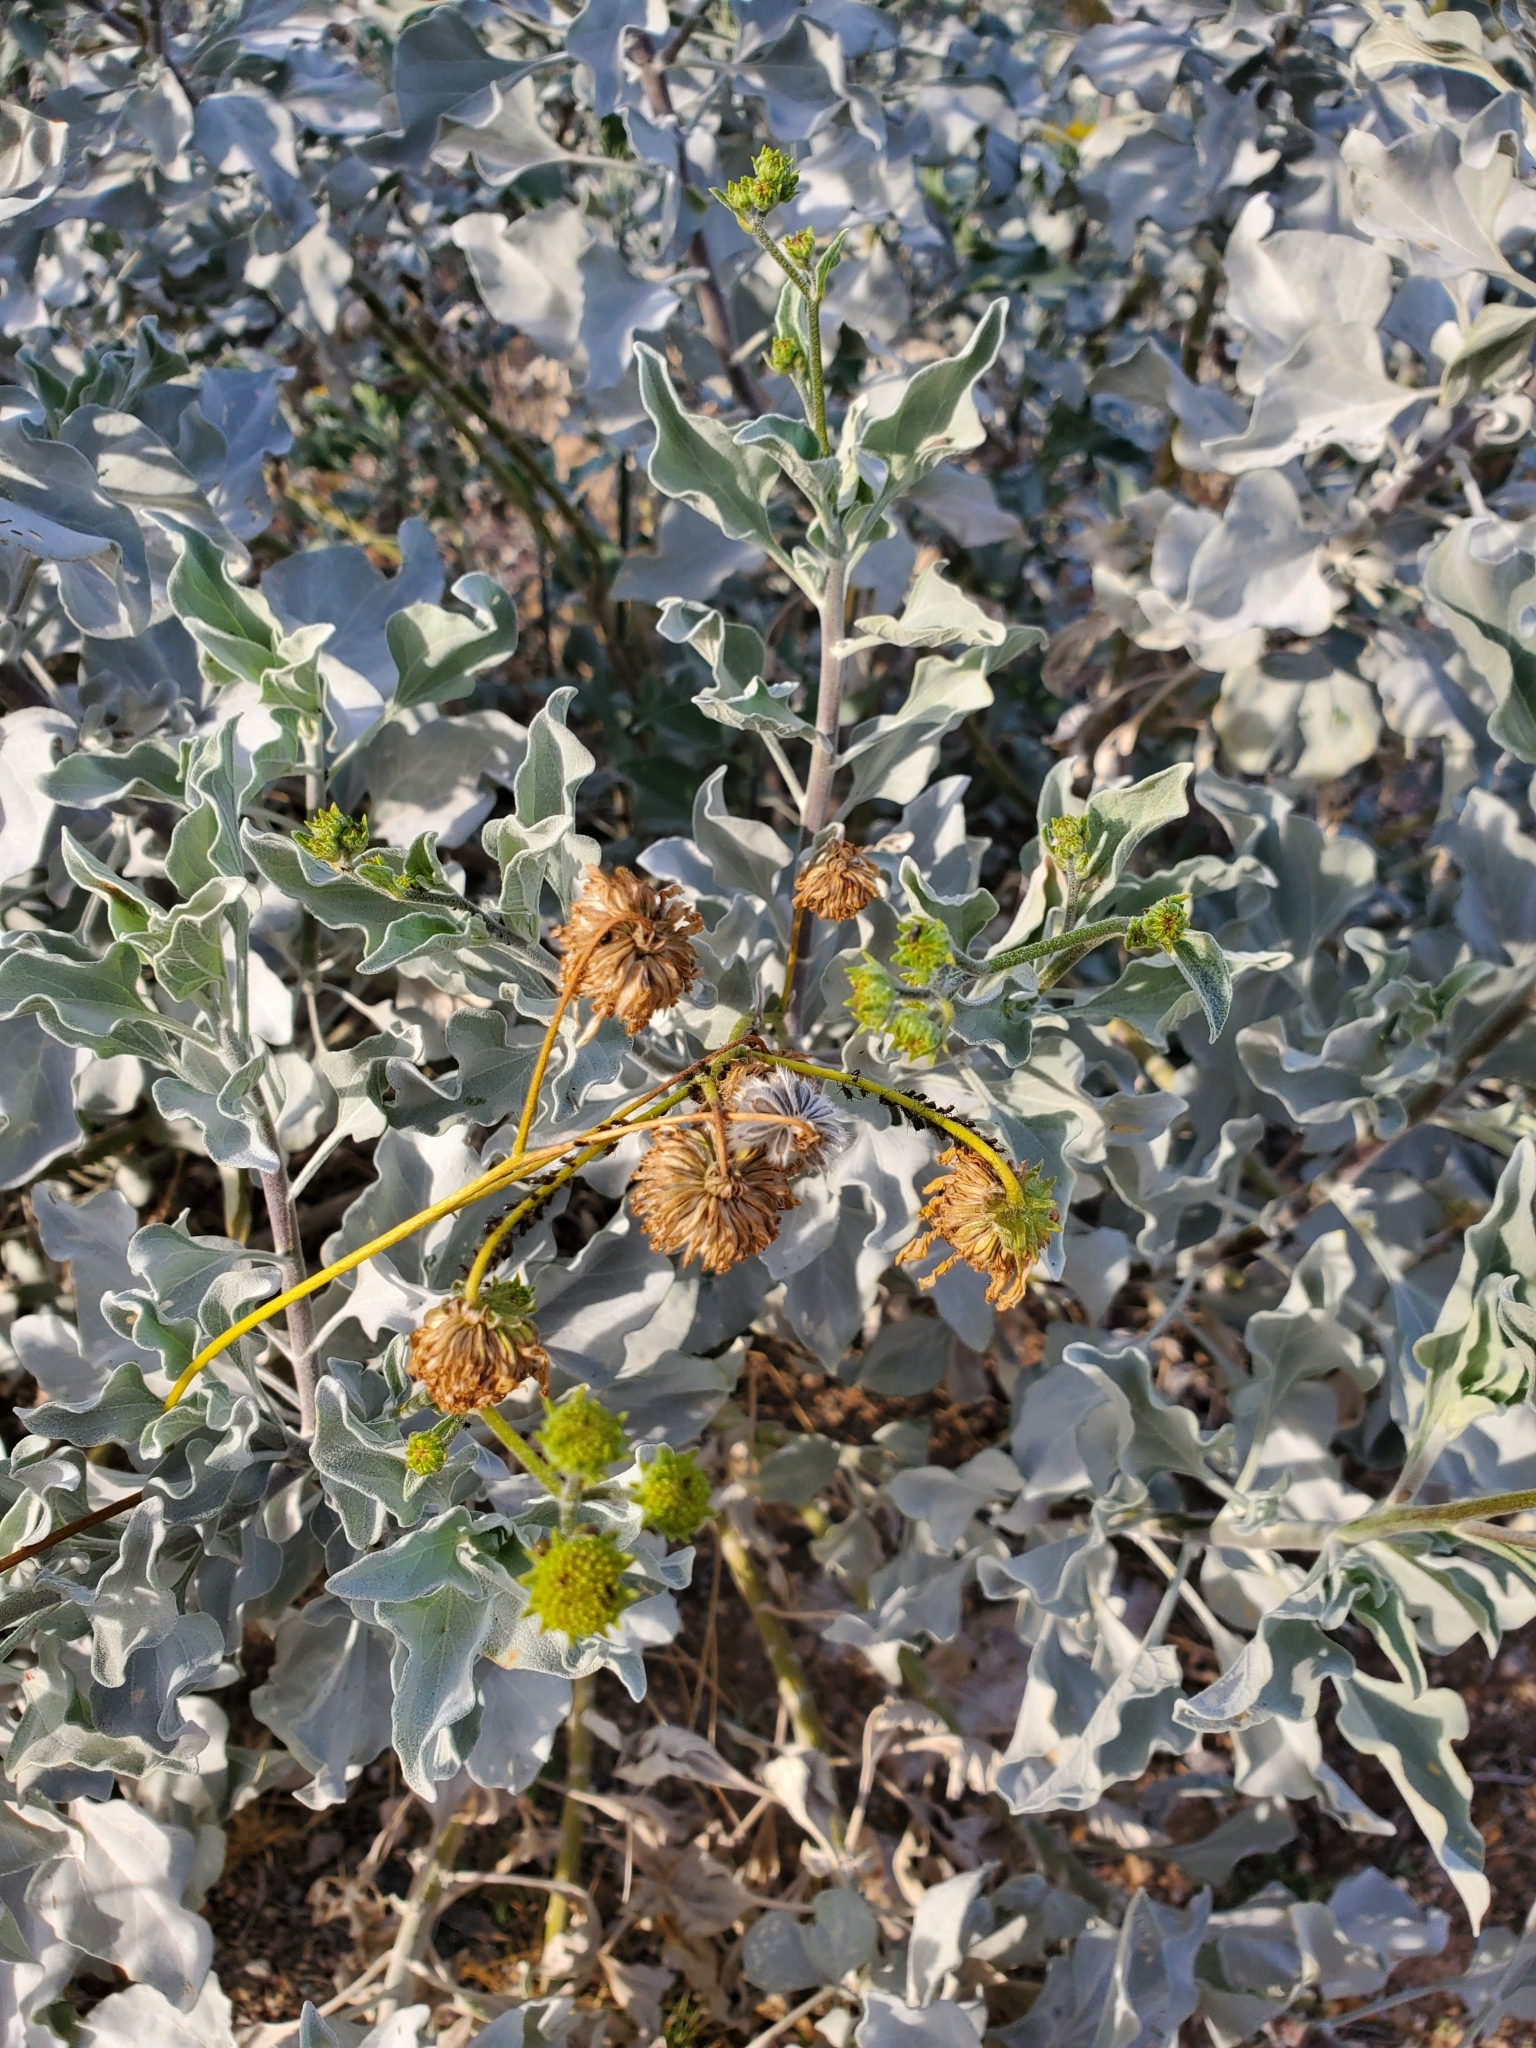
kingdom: Plantae
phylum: Tracheophyta
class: Magnoliopsida
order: Asterales
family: Asteraceae
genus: Encelia
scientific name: Encelia farinosa
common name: Brittlebush
